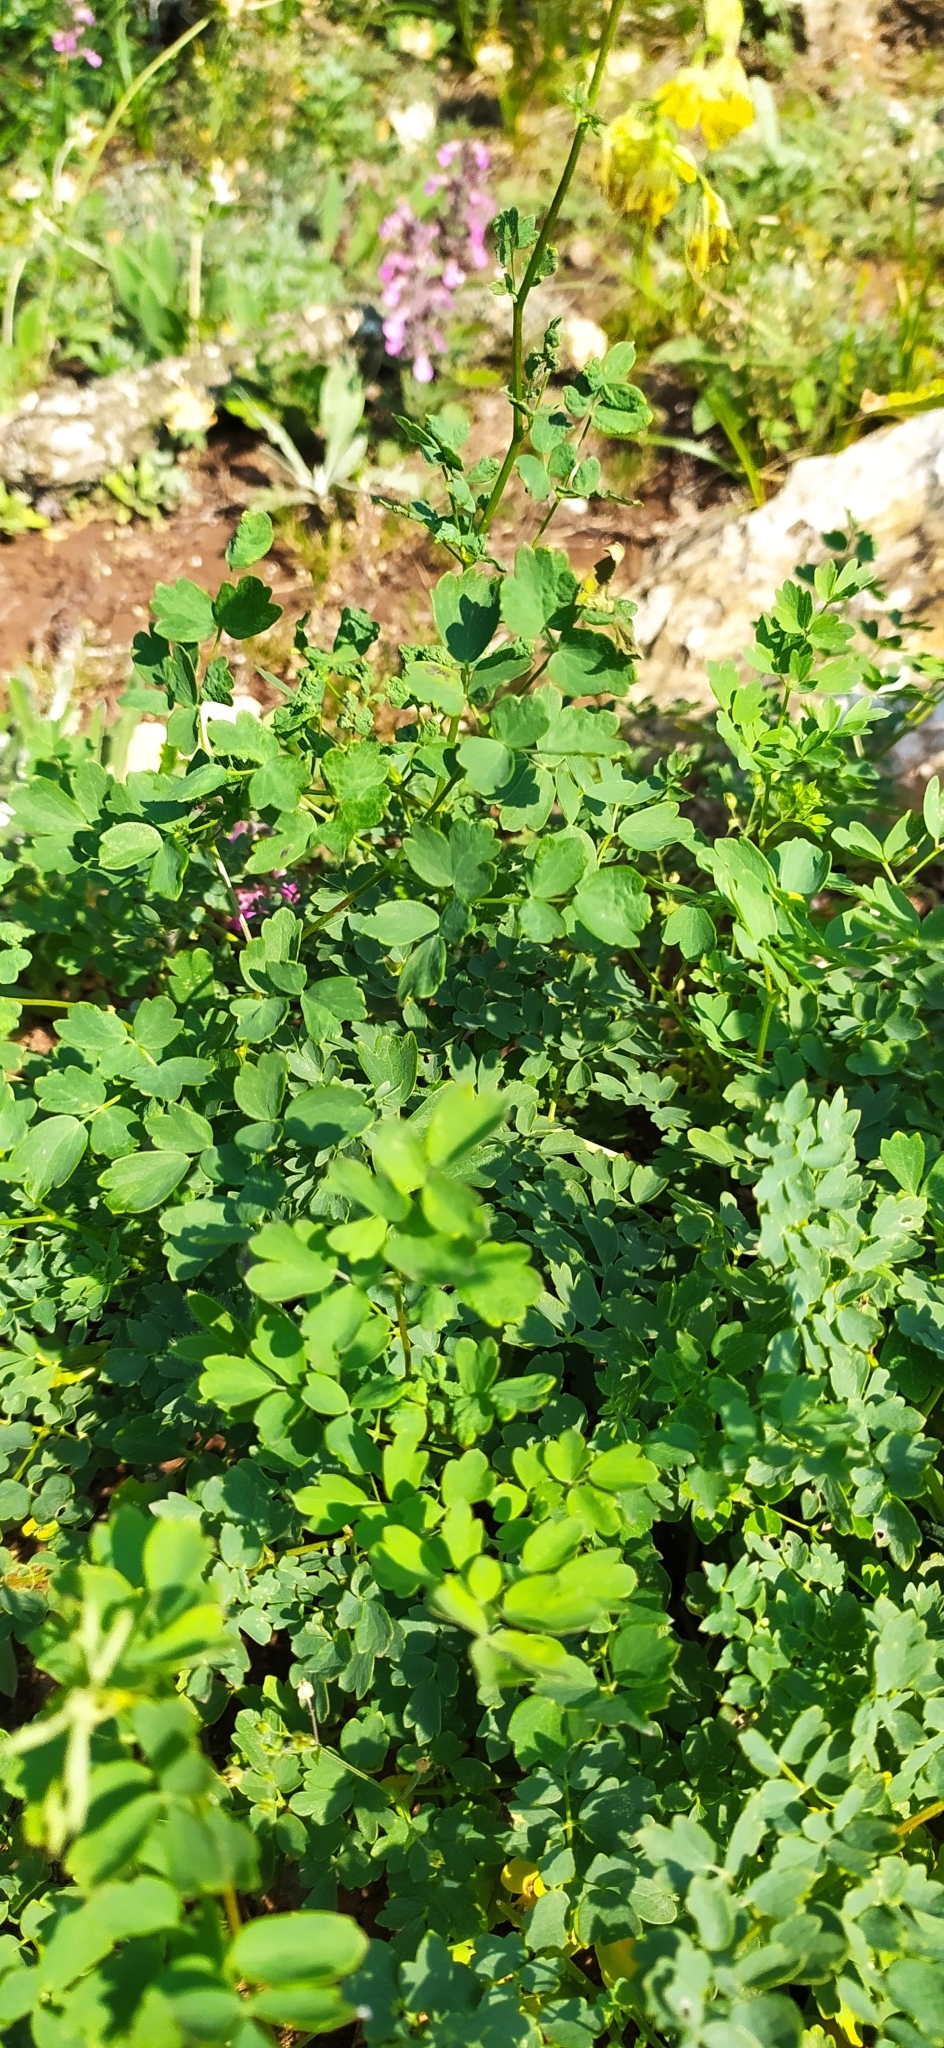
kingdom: Plantae
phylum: Tracheophyta
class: Magnoliopsida
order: Ranunculales
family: Ranunculaceae
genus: Thalictrum
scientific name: Thalictrum minus
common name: Lesser meadow-rue
